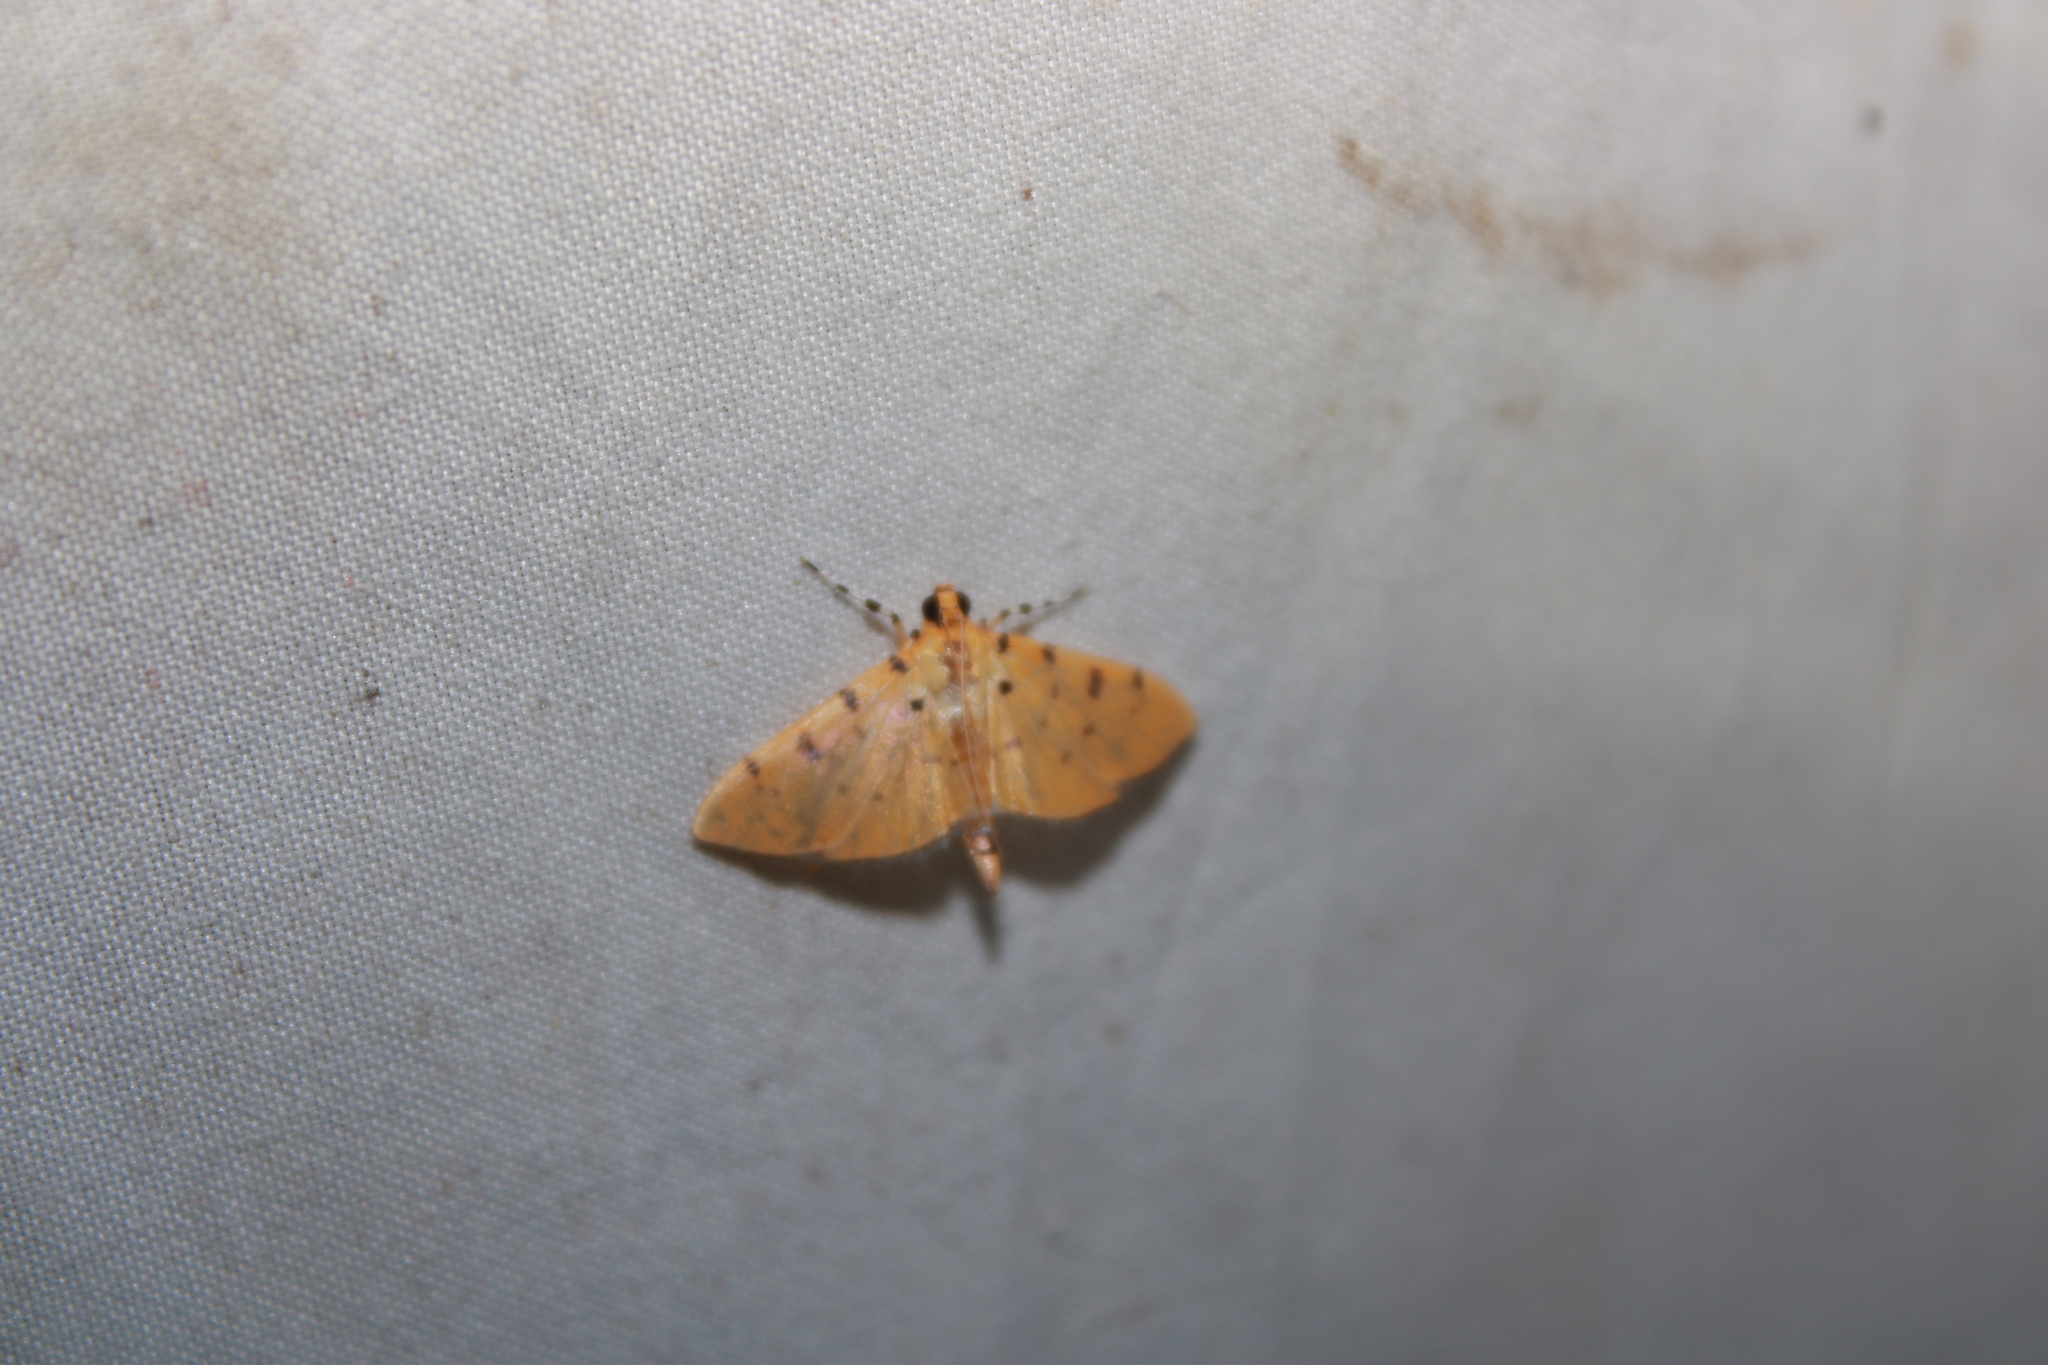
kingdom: Animalia
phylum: Arthropoda
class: Insecta
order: Lepidoptera
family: Crambidae
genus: Phaedropsis
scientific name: Phaedropsis stictigramma
